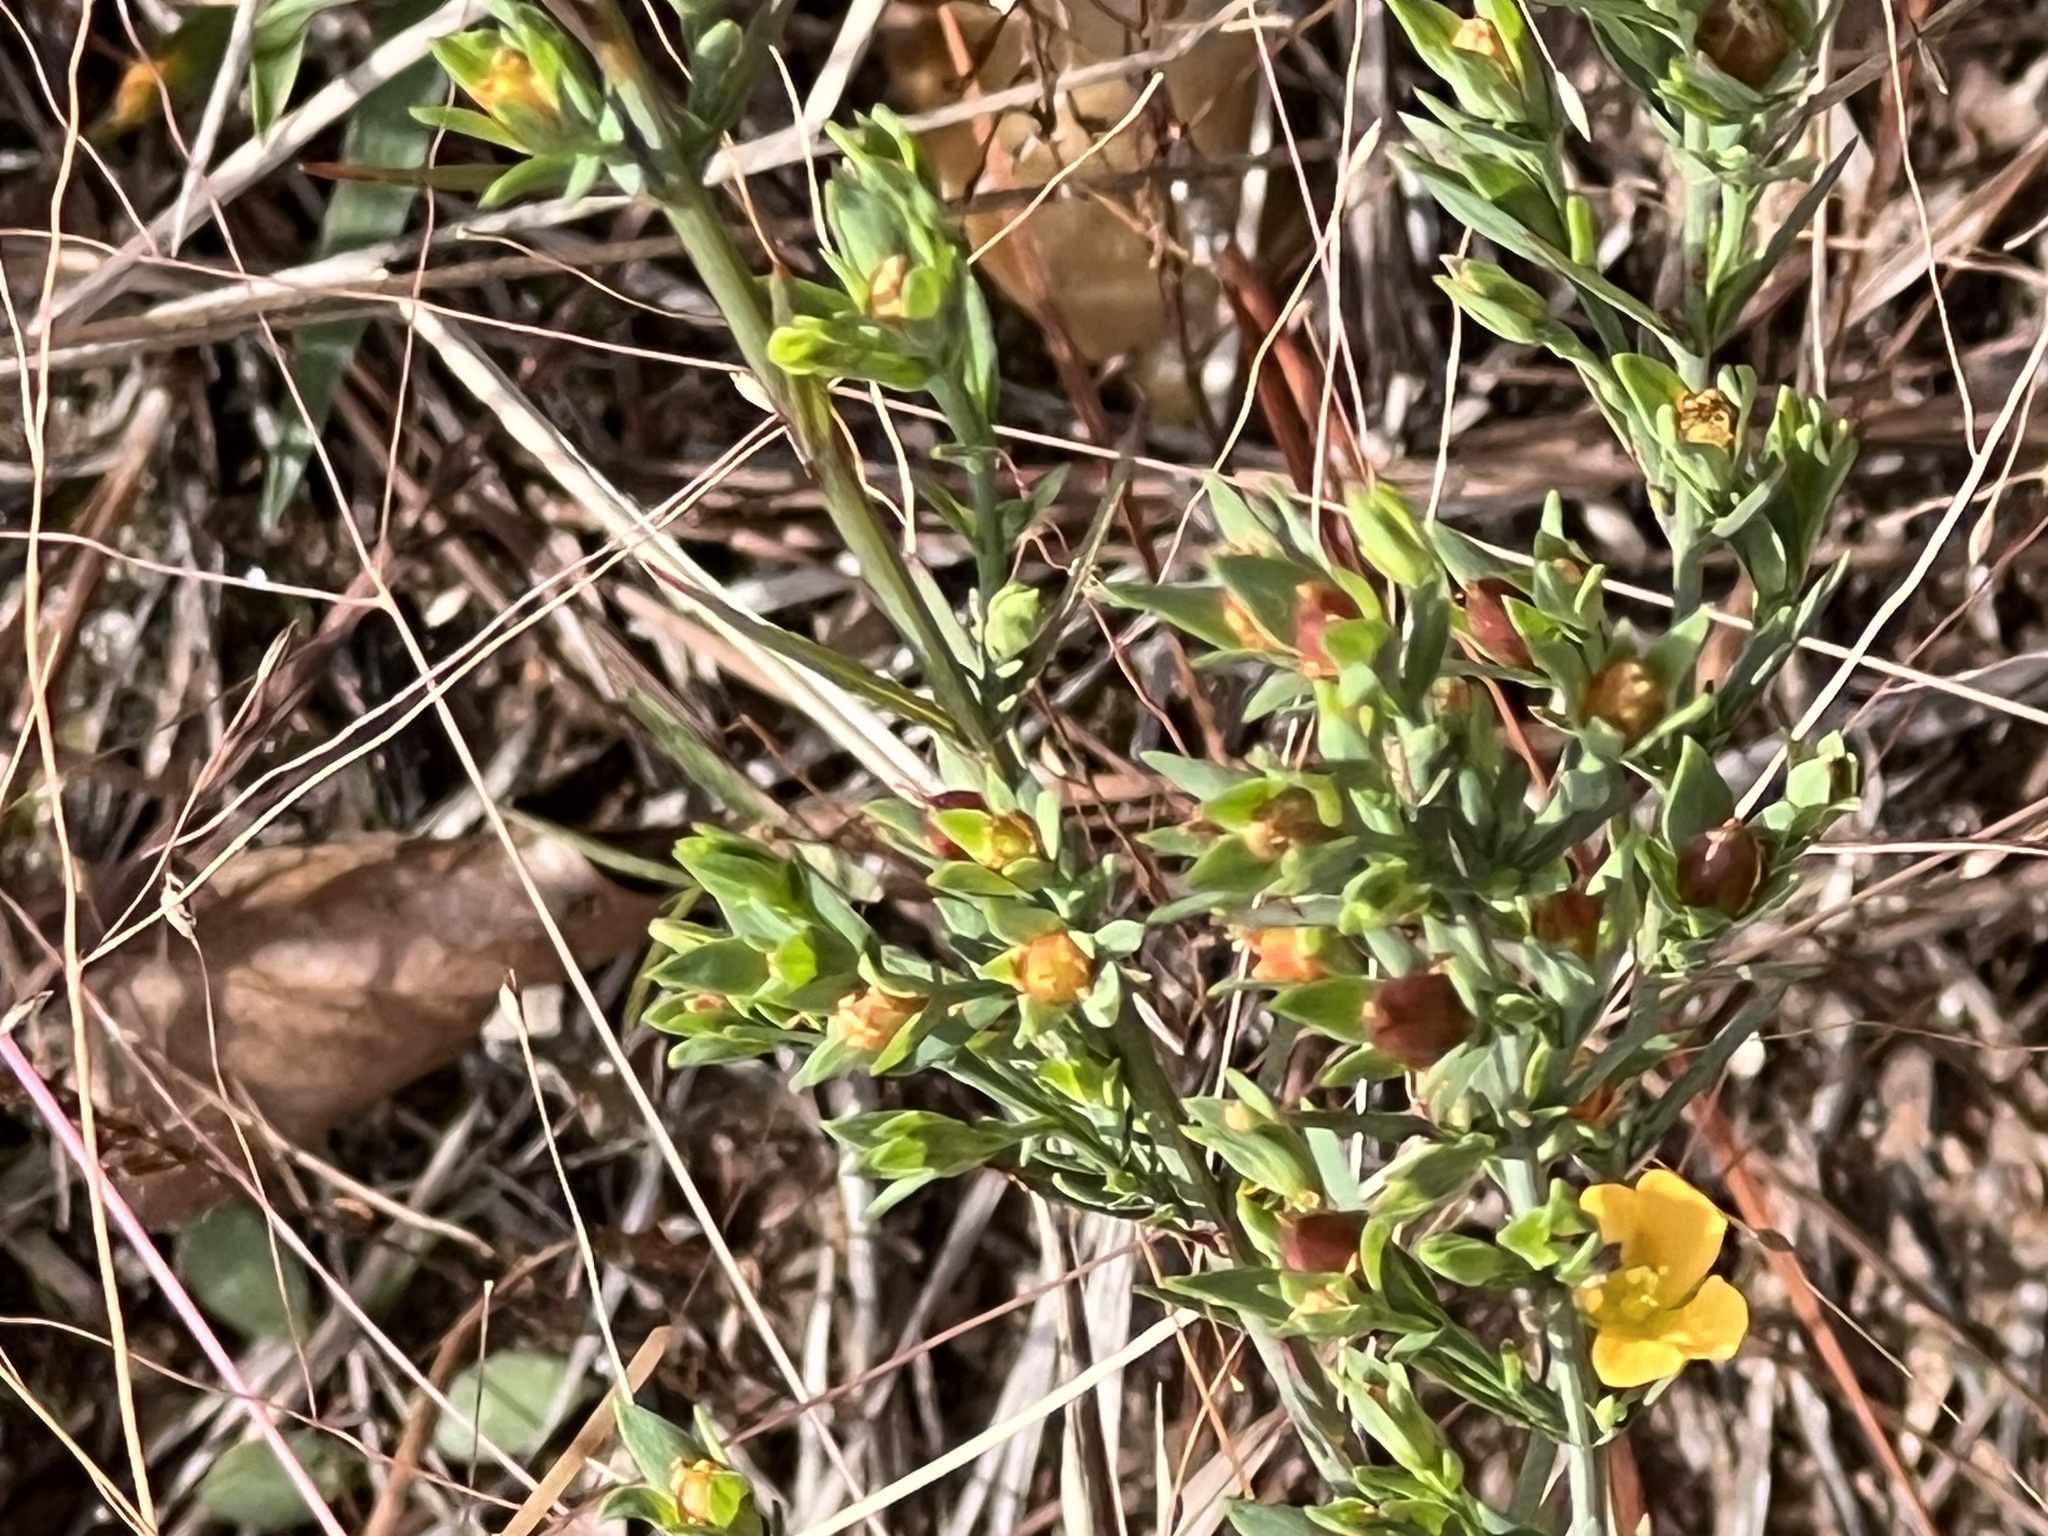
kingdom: Plantae
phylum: Tracheophyta
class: Magnoliopsida
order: Malpighiales
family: Hypericaceae
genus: Hypericum
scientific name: Hypericum drummondii
